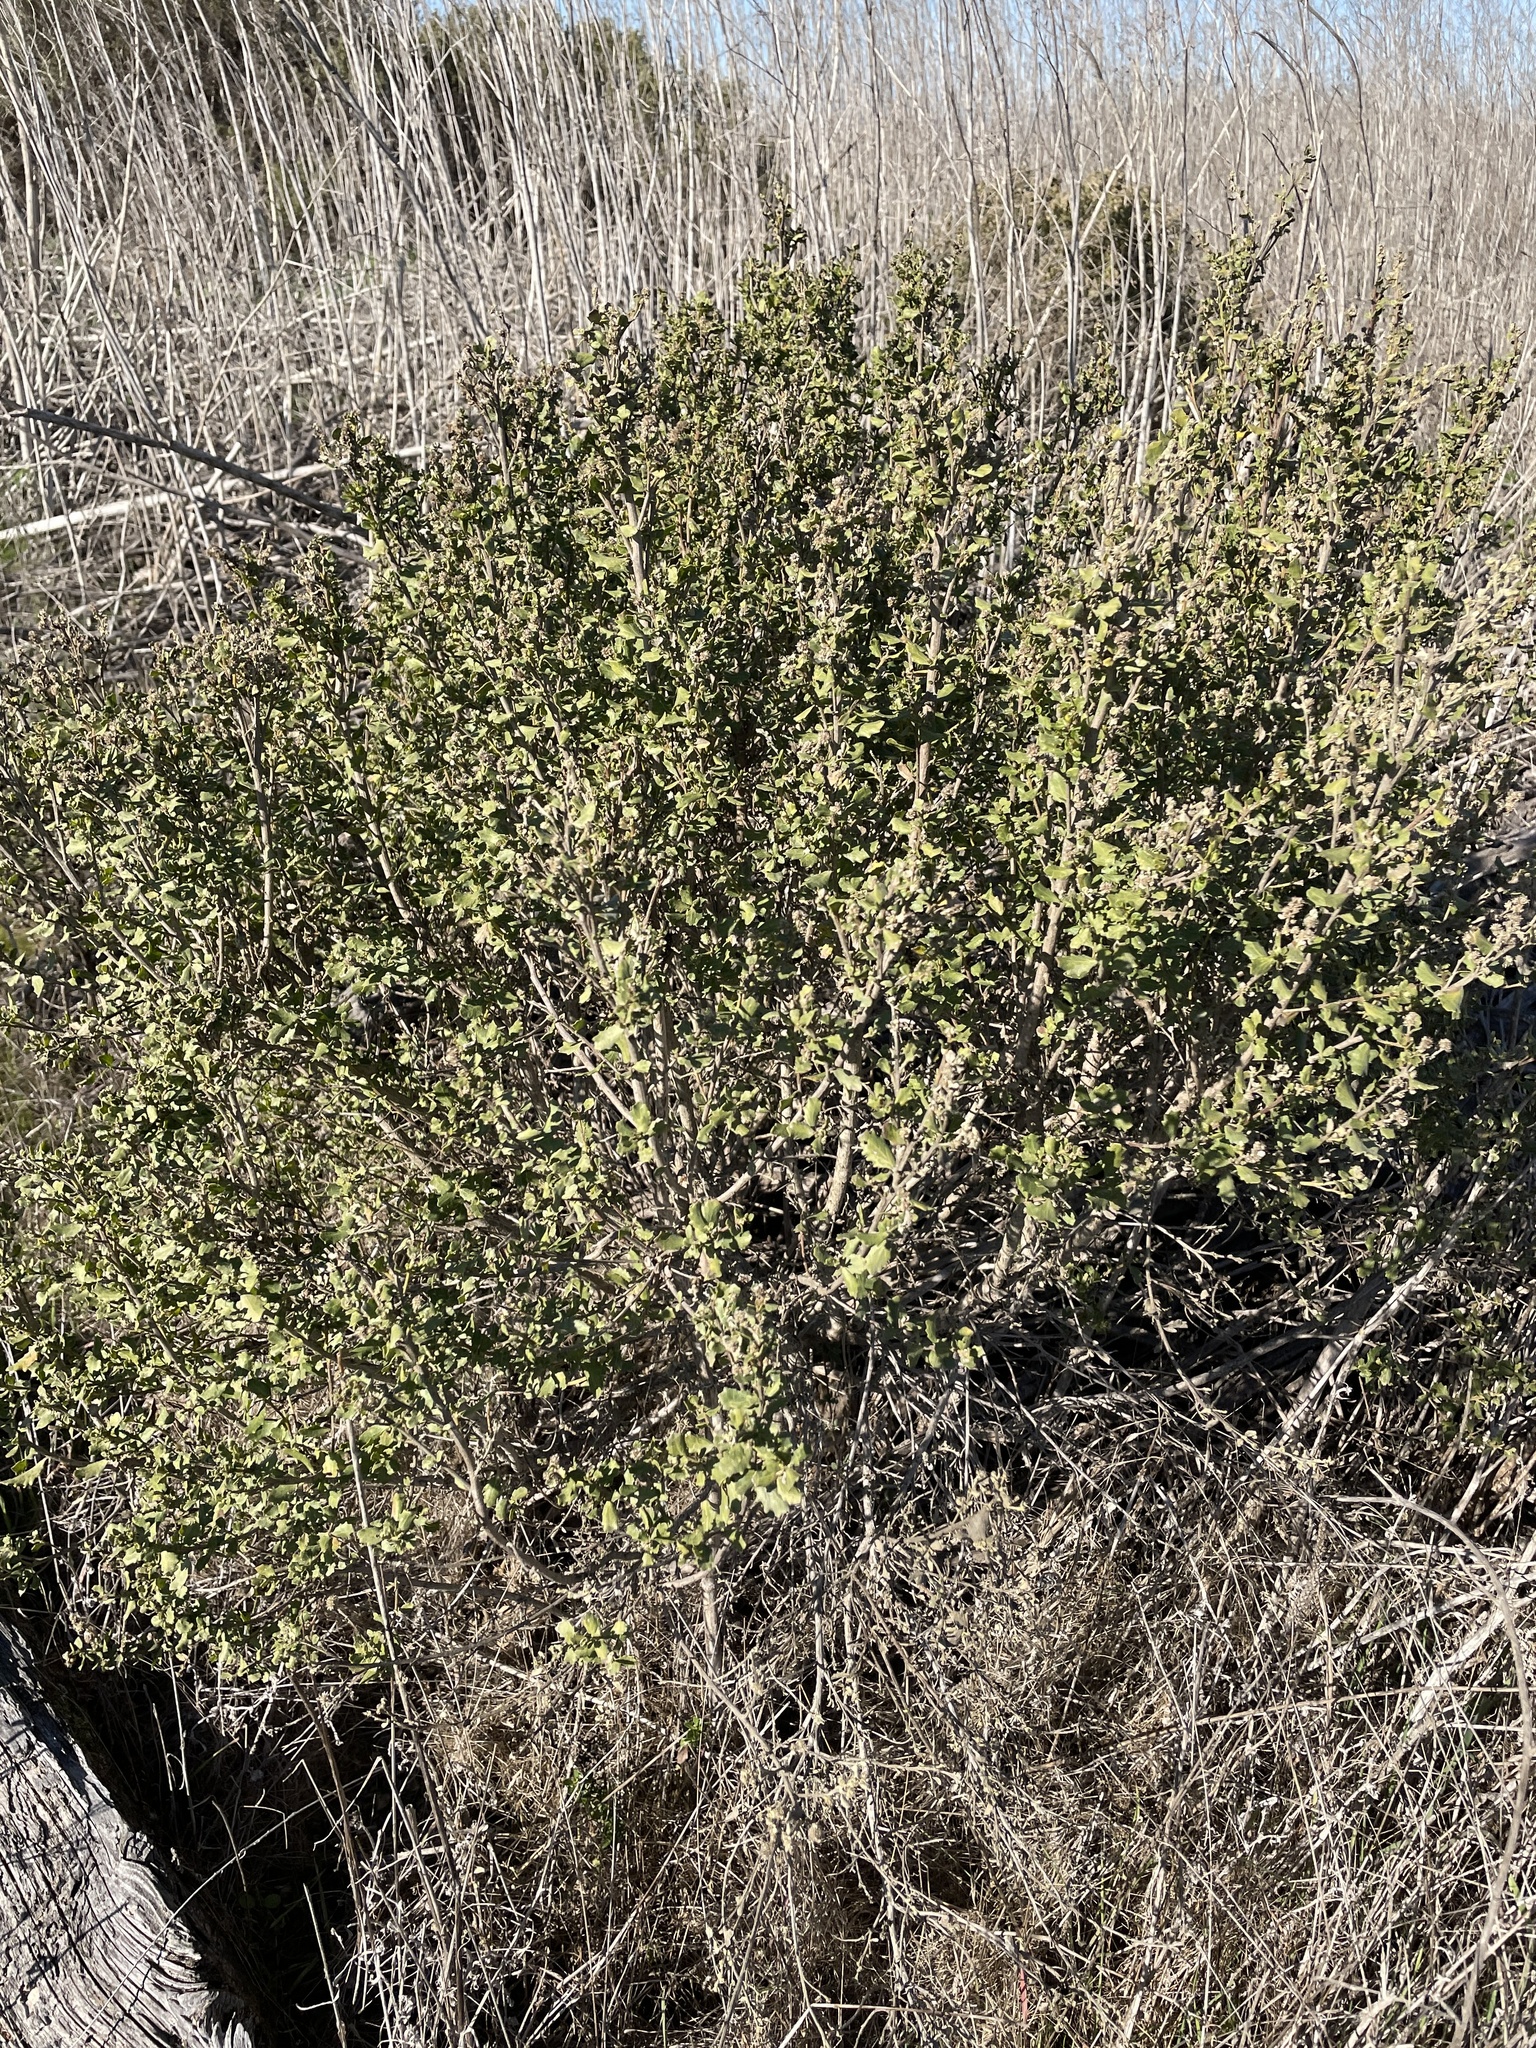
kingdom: Plantae
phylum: Tracheophyta
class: Magnoliopsida
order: Asterales
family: Asteraceae
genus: Baccharis
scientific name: Baccharis pilularis
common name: Coyotebrush
